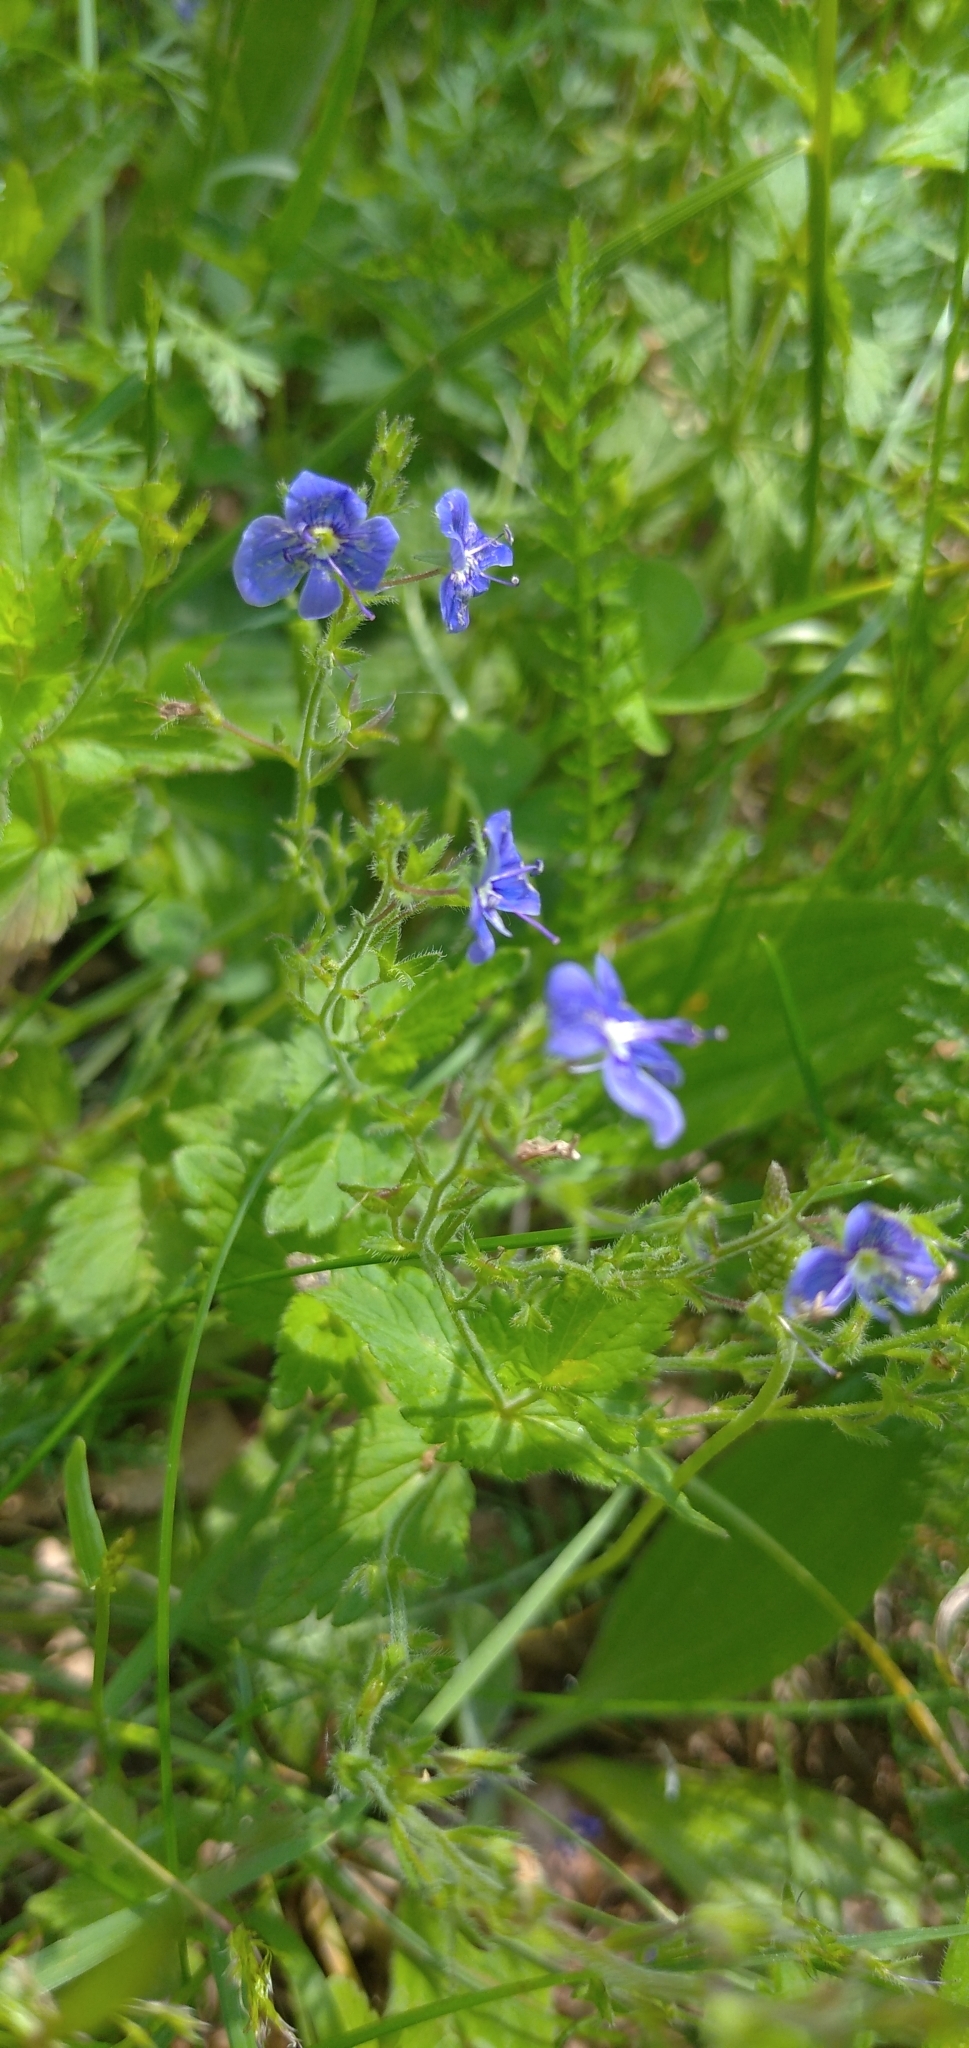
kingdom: Plantae
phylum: Tracheophyta
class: Magnoliopsida
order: Lamiales
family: Plantaginaceae
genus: Veronica
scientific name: Veronica chamaedrys
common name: Germander speedwell
